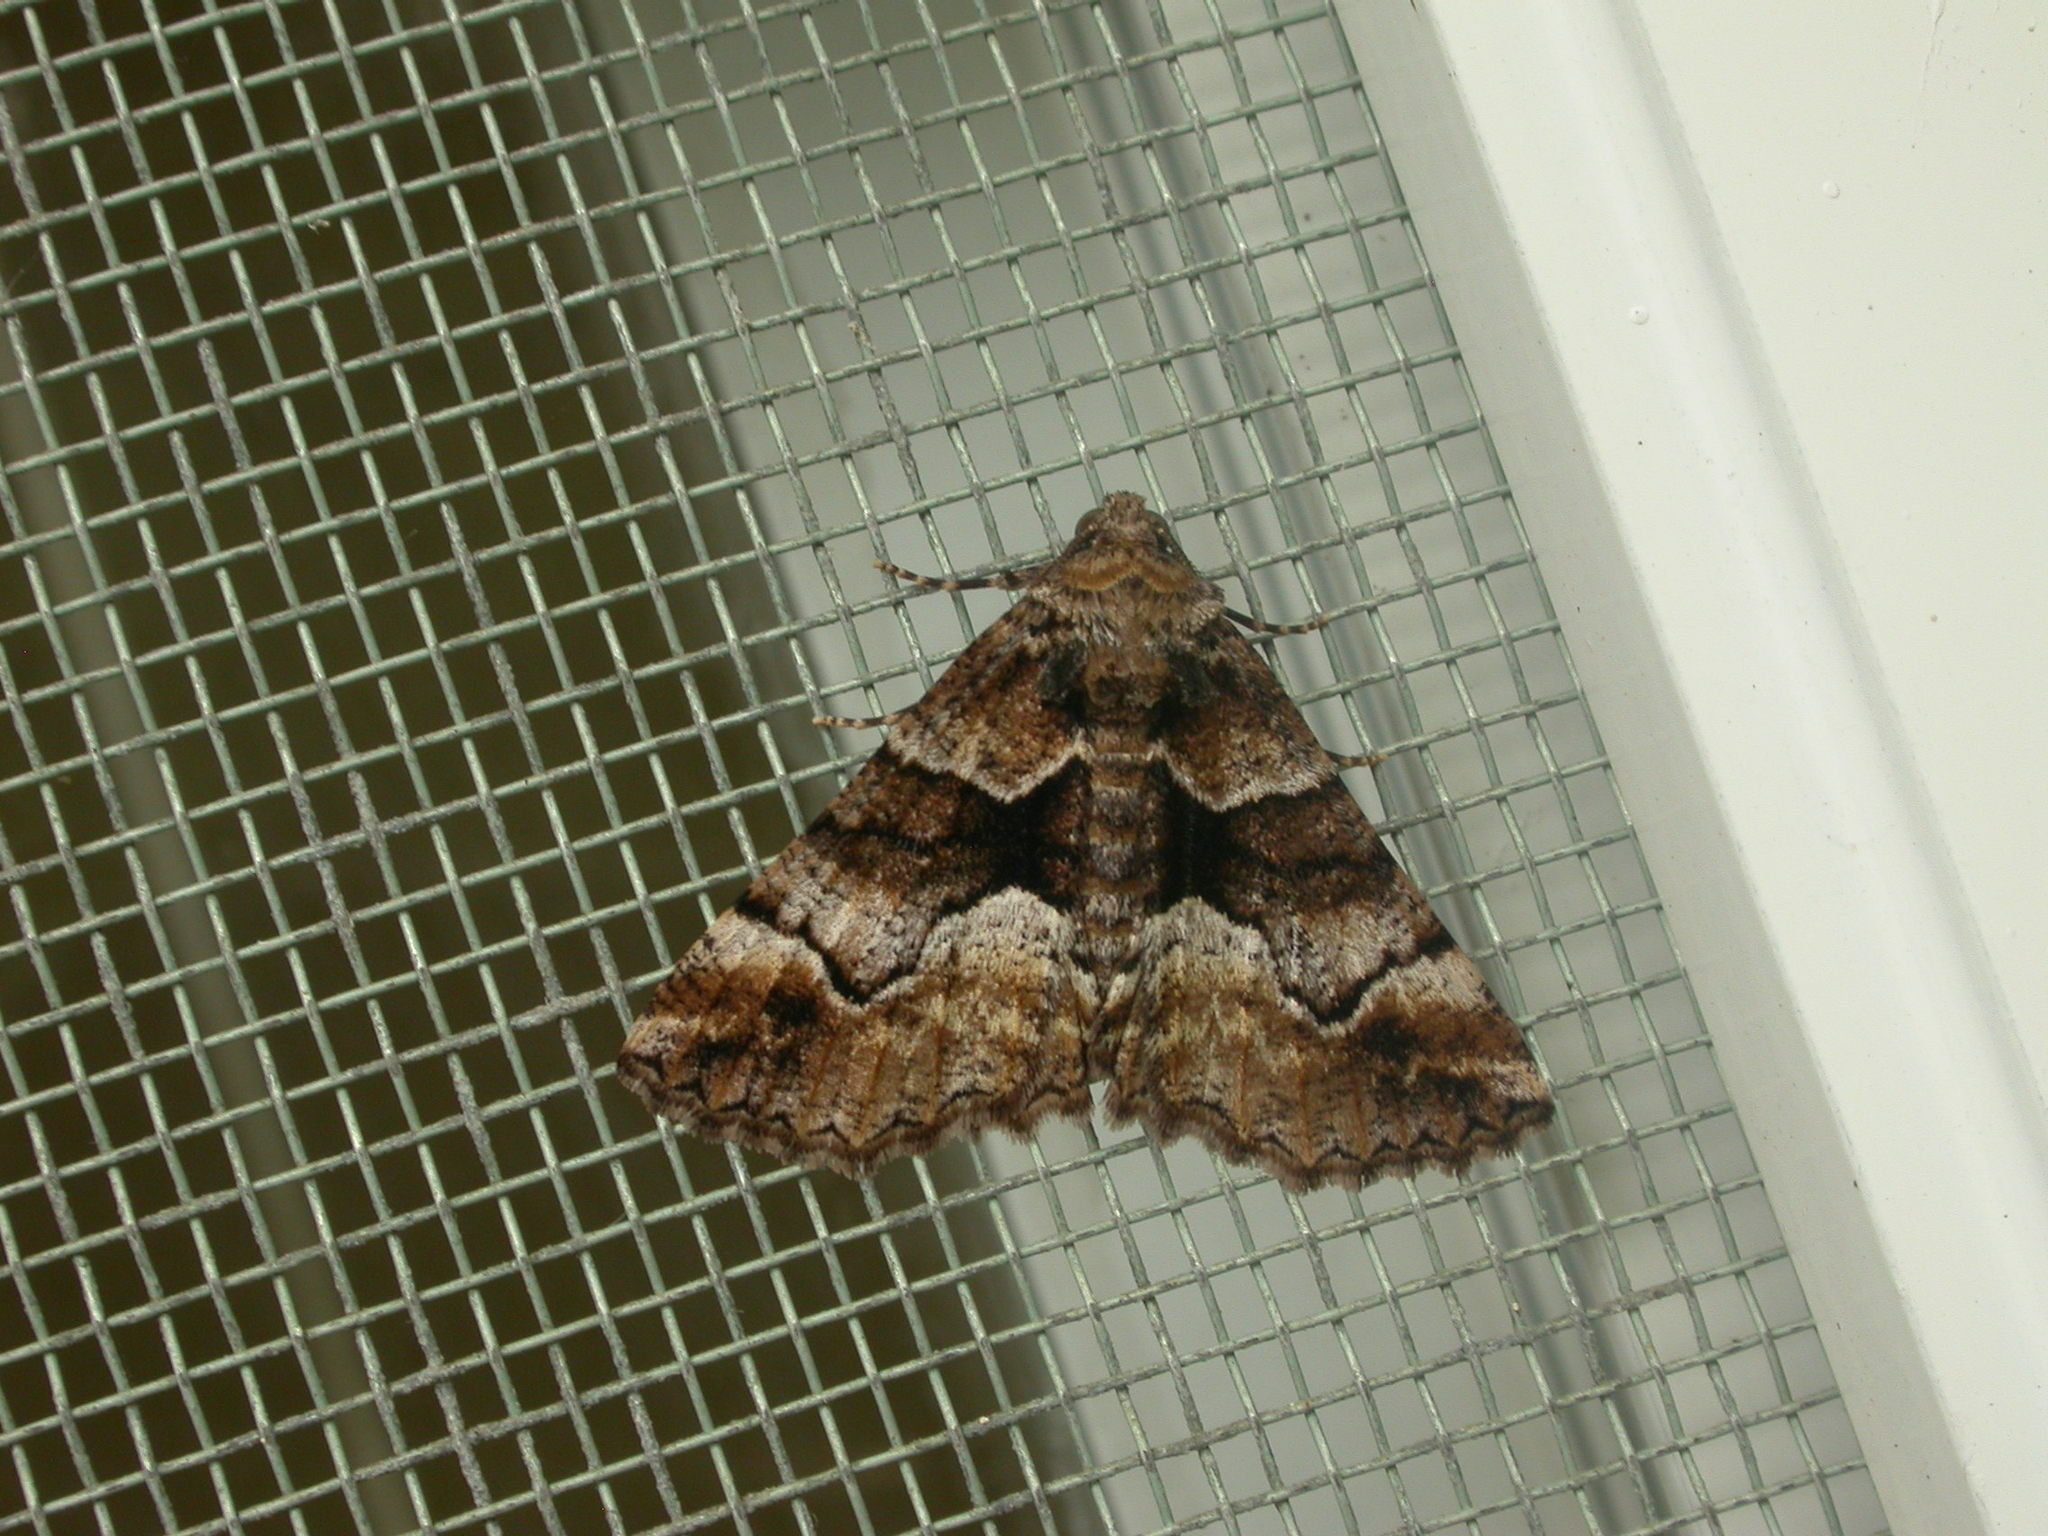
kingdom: Animalia
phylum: Arthropoda
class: Insecta
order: Lepidoptera
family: Geometridae
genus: Gastrina
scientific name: Gastrina cristaria
